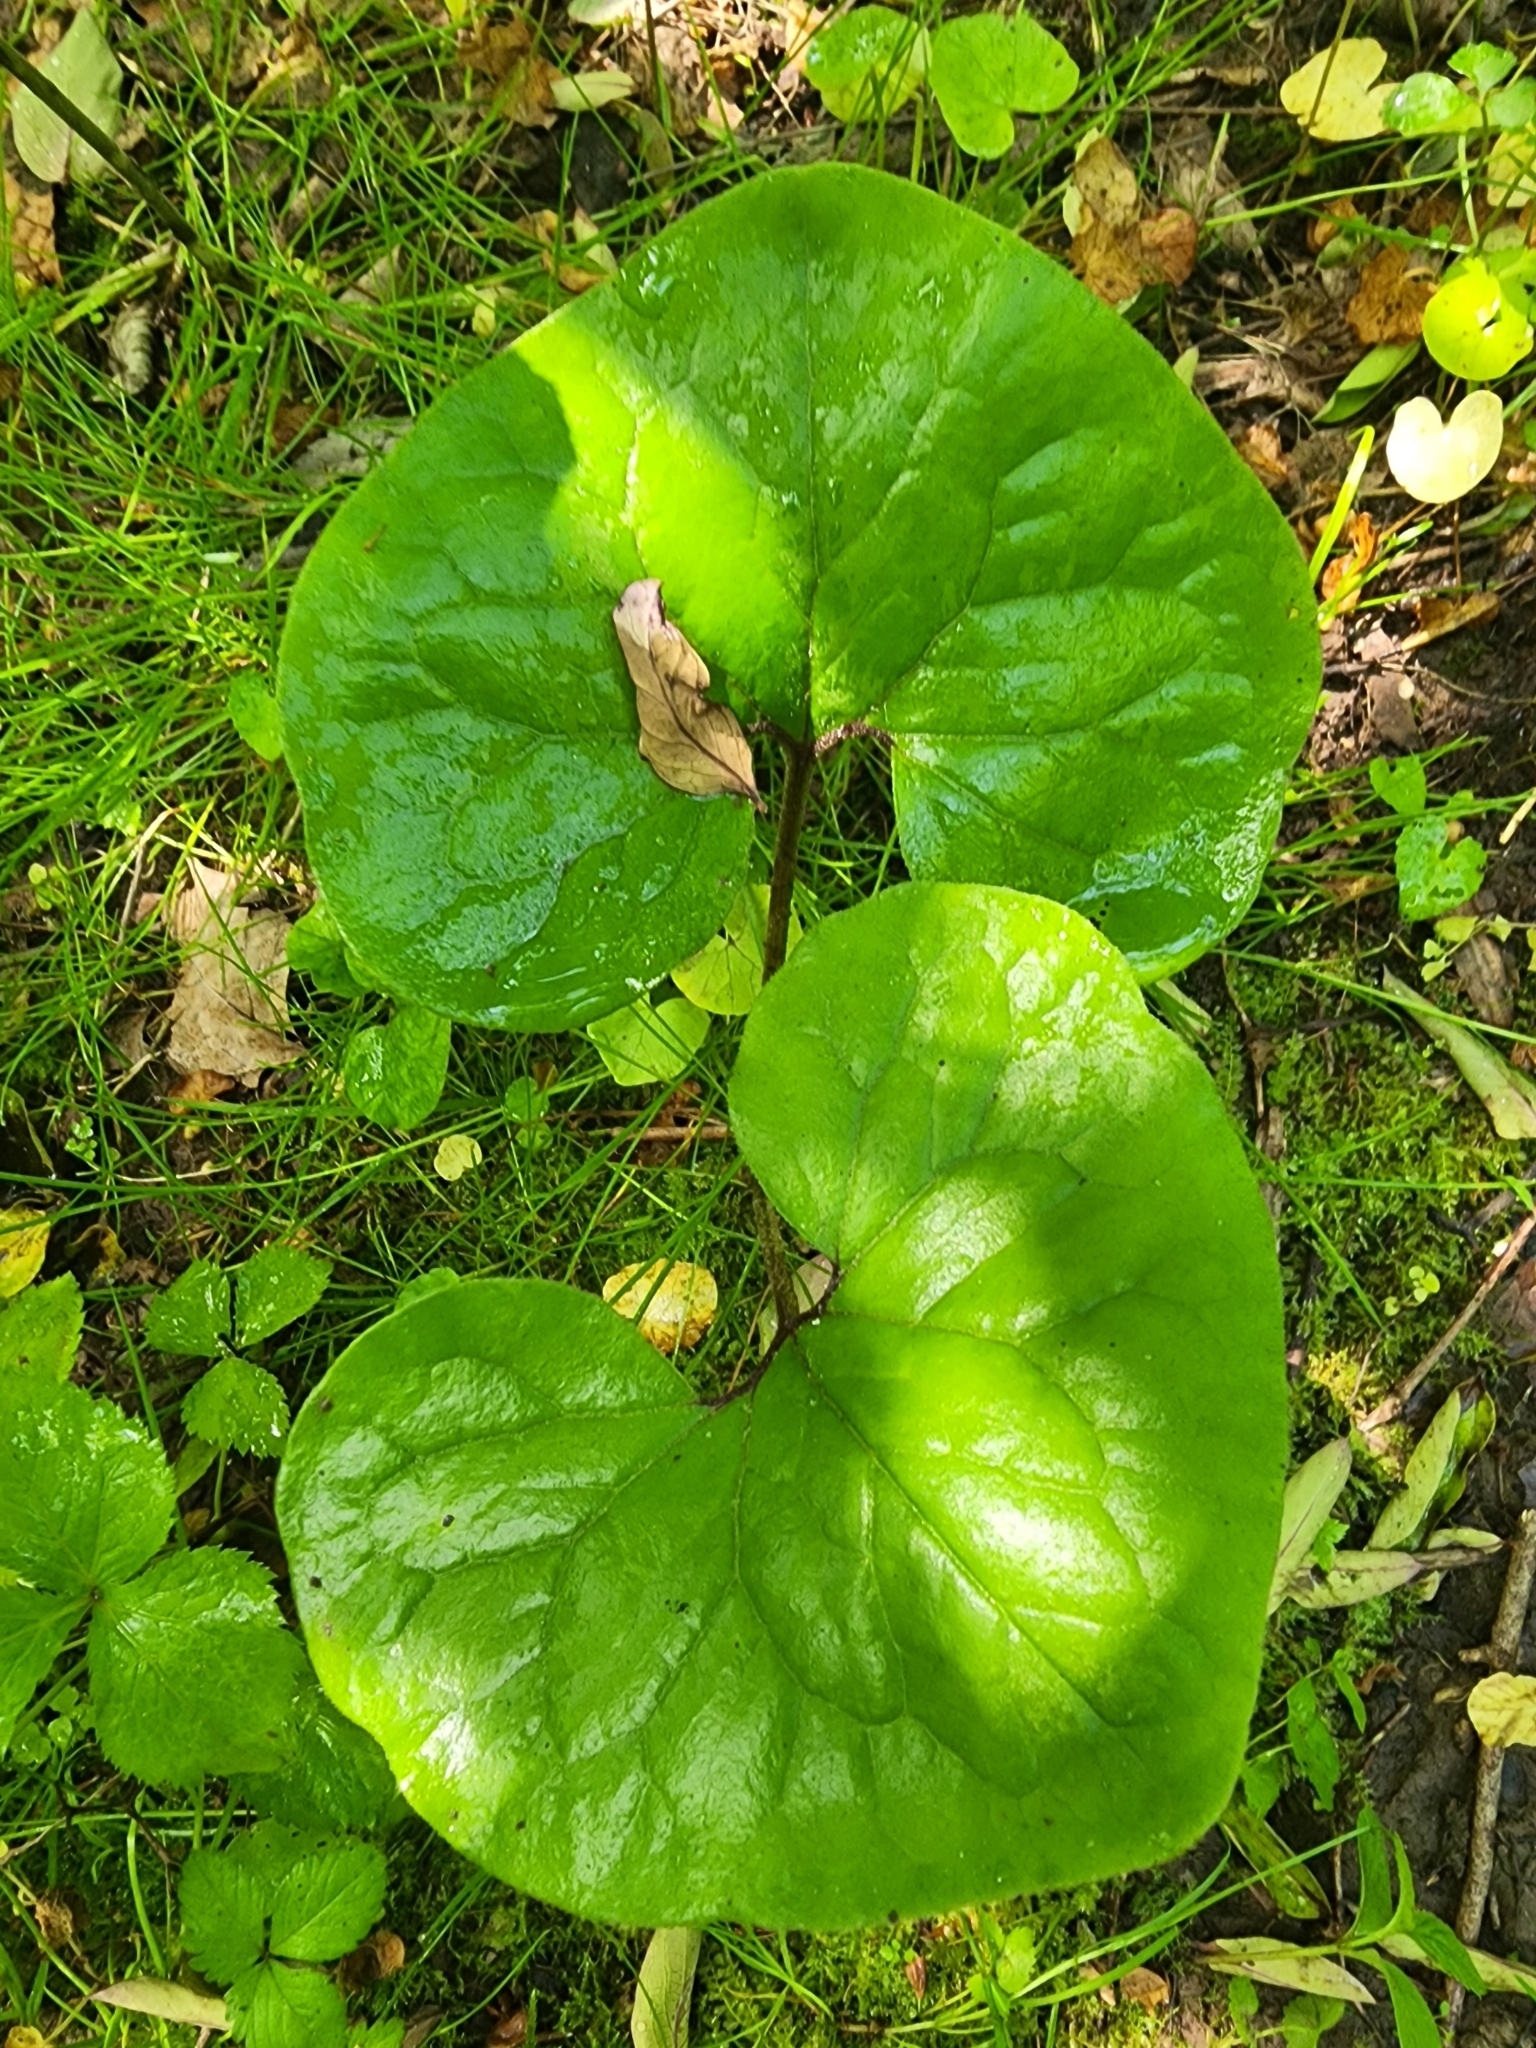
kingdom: Plantae
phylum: Tracheophyta
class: Magnoliopsida
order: Piperales
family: Aristolochiaceae
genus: Asarum
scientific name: Asarum canadense
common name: Wild ginger
